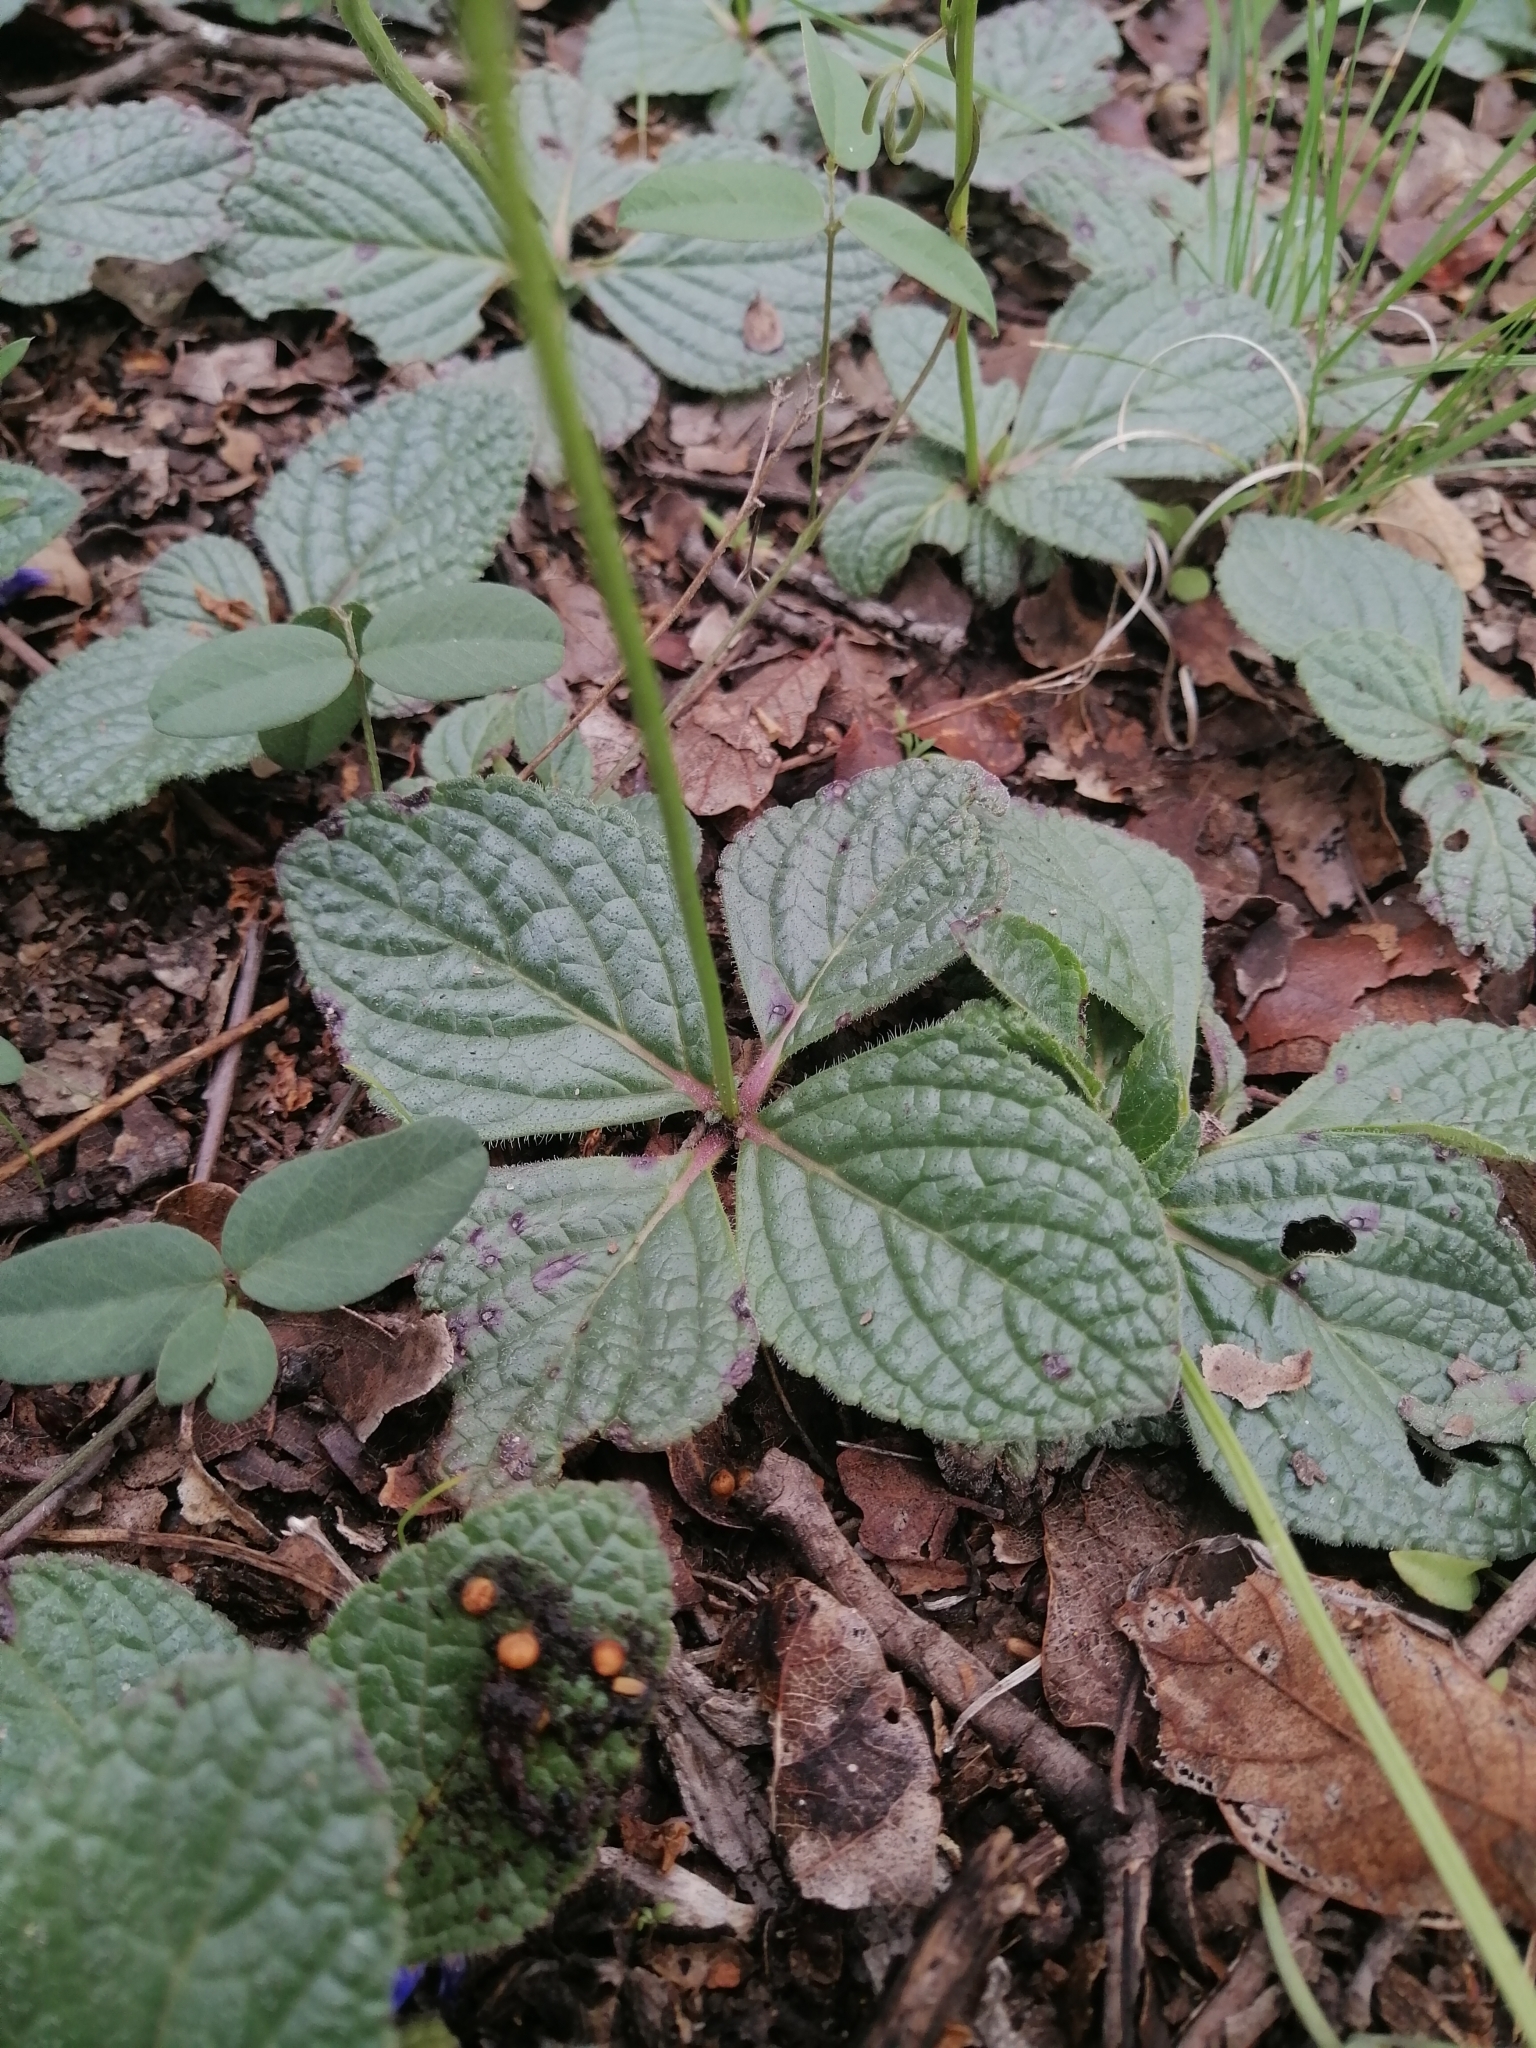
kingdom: Plantae
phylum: Tracheophyta
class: Magnoliopsida
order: Lamiales
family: Lamiaceae
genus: Salvia
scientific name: Salvia nana
